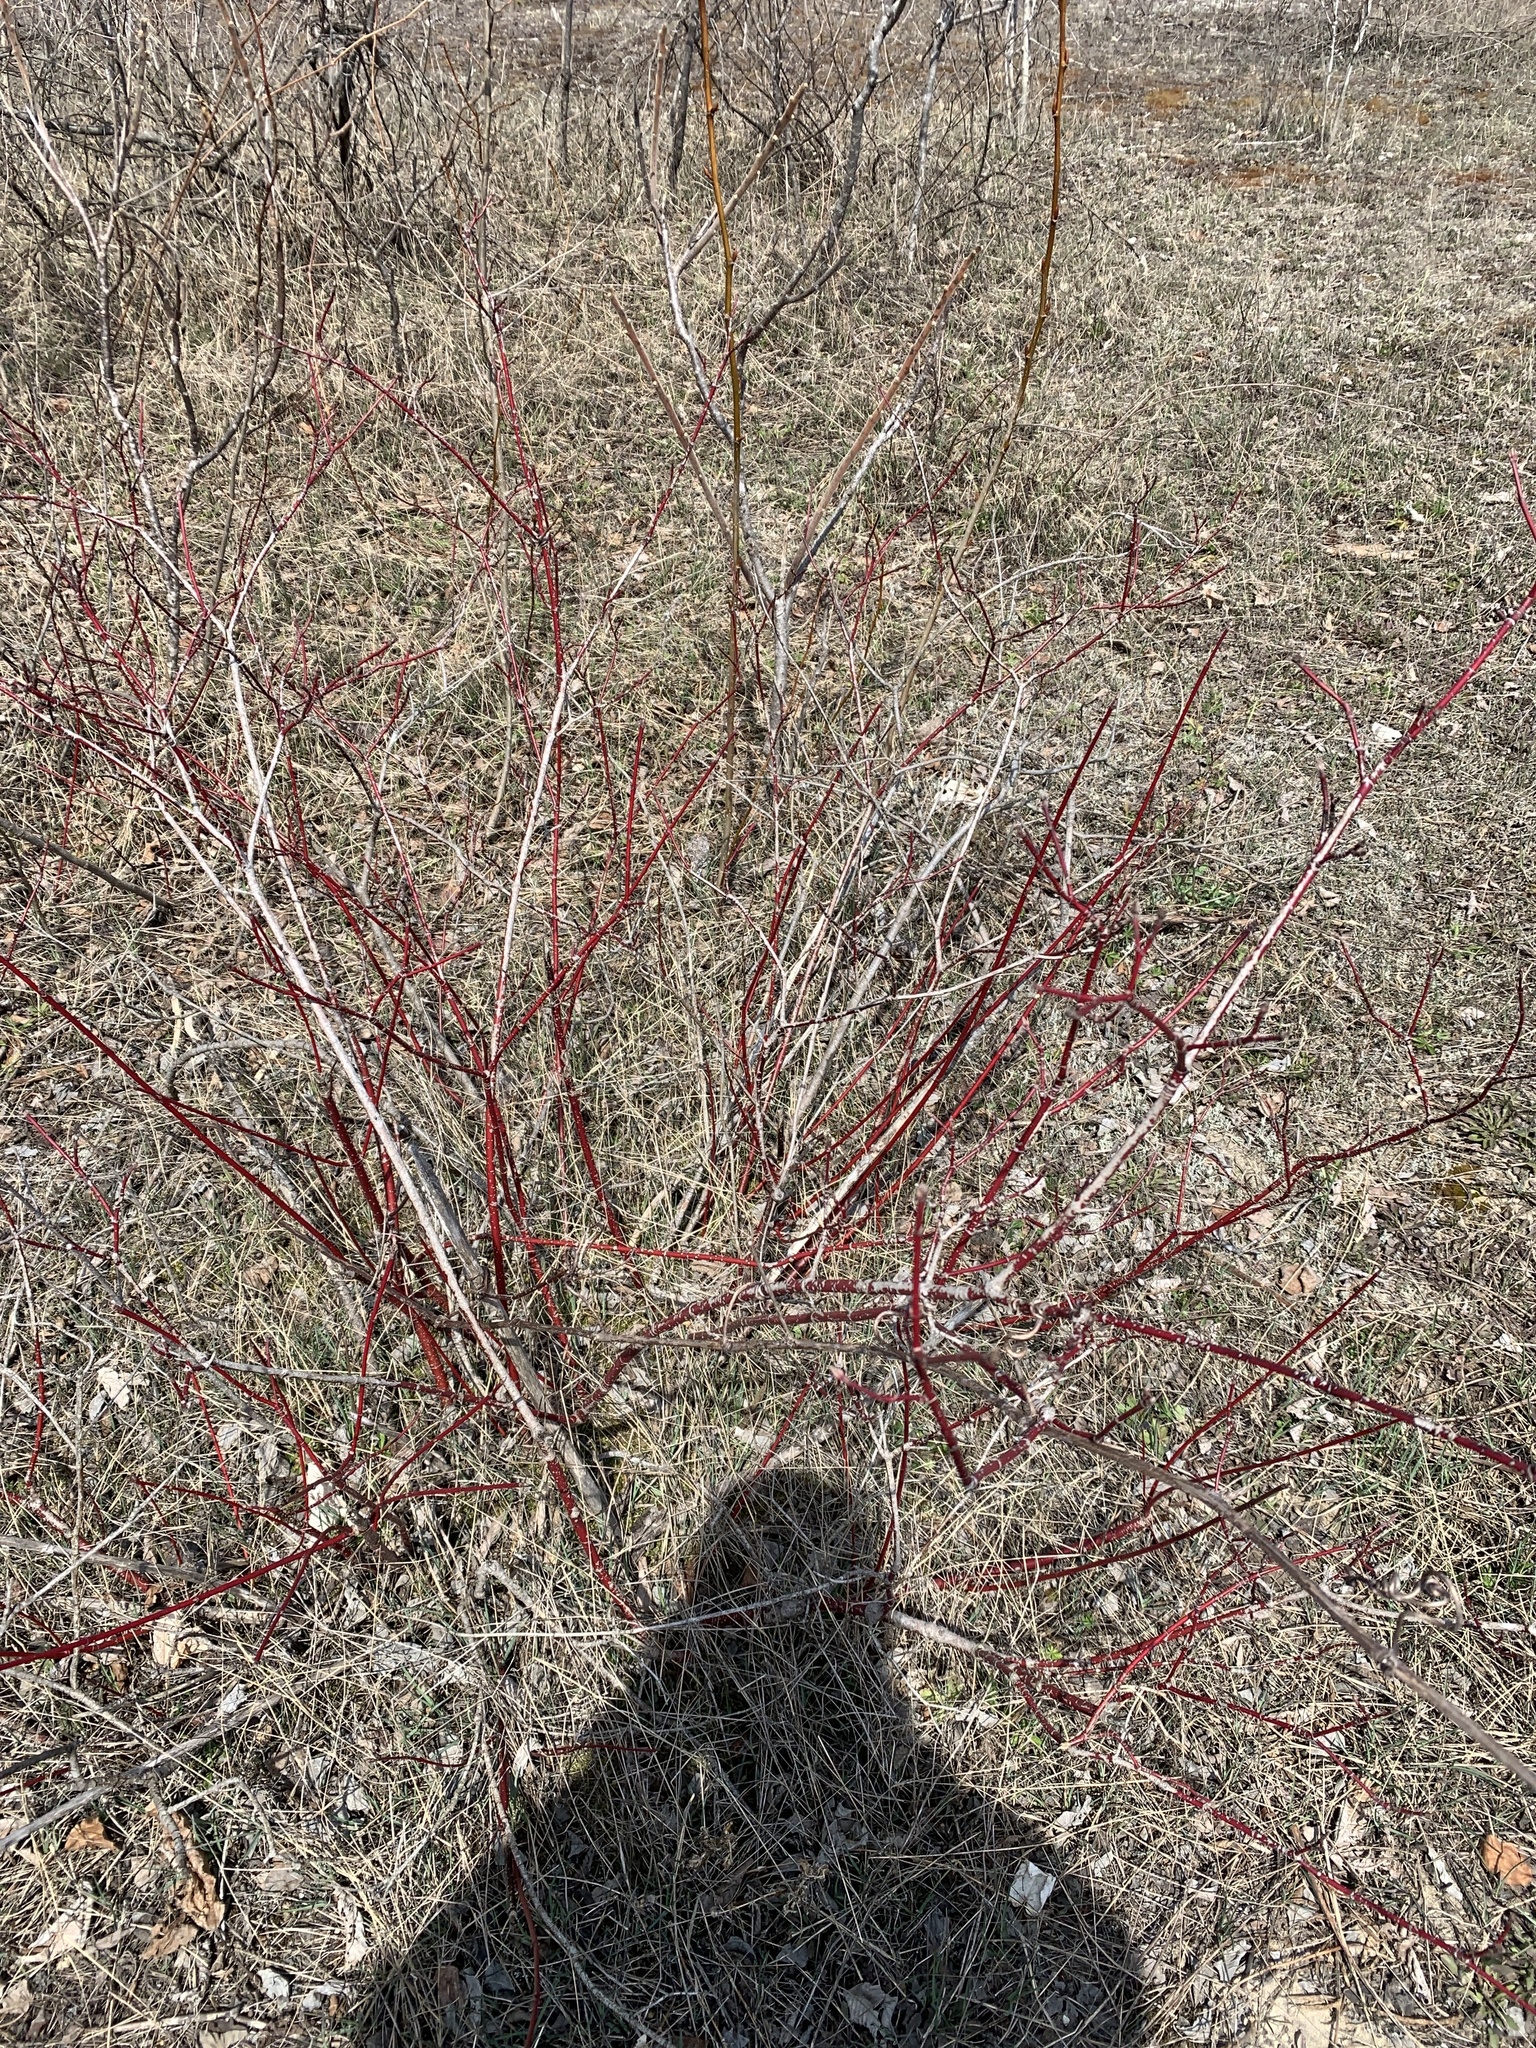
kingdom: Plantae
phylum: Tracheophyta
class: Magnoliopsida
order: Cornales
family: Cornaceae
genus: Cornus
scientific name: Cornus sericea
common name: Red-osier dogwood
